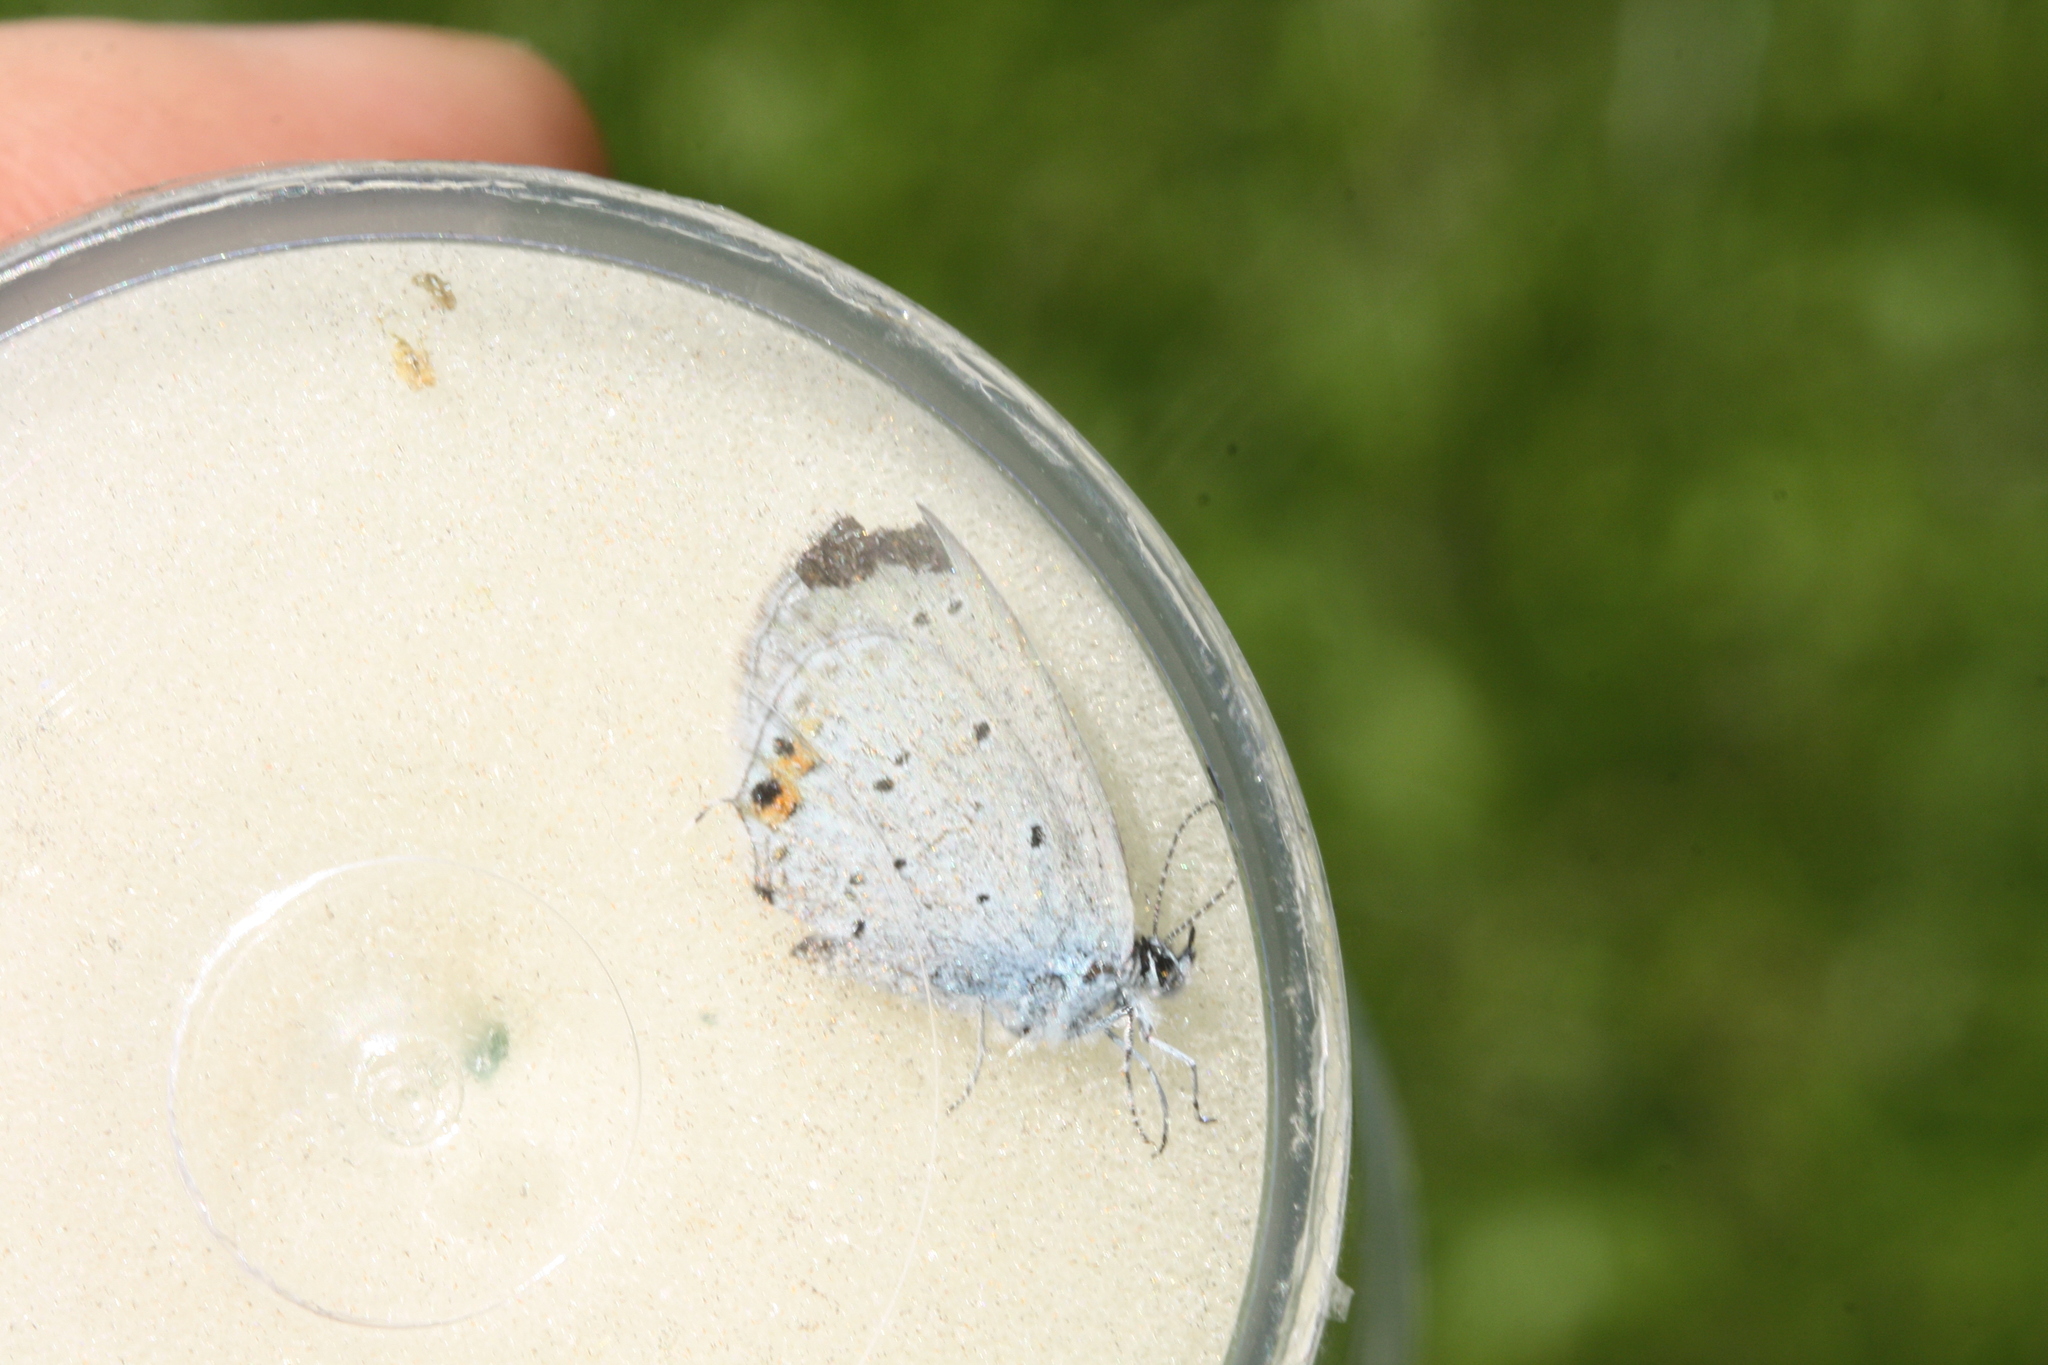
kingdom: Animalia
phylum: Arthropoda
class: Insecta
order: Lepidoptera
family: Lycaenidae
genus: Elkalyce
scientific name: Elkalyce argiades
